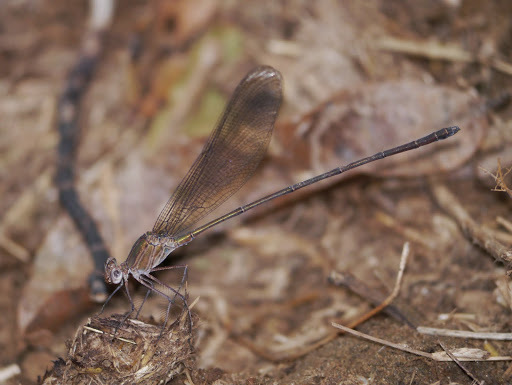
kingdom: Animalia
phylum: Arthropoda
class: Insecta
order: Odonata
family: Calopterygidae
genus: Phaon
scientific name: Phaon iridipennis
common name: Glistening demoiselle
